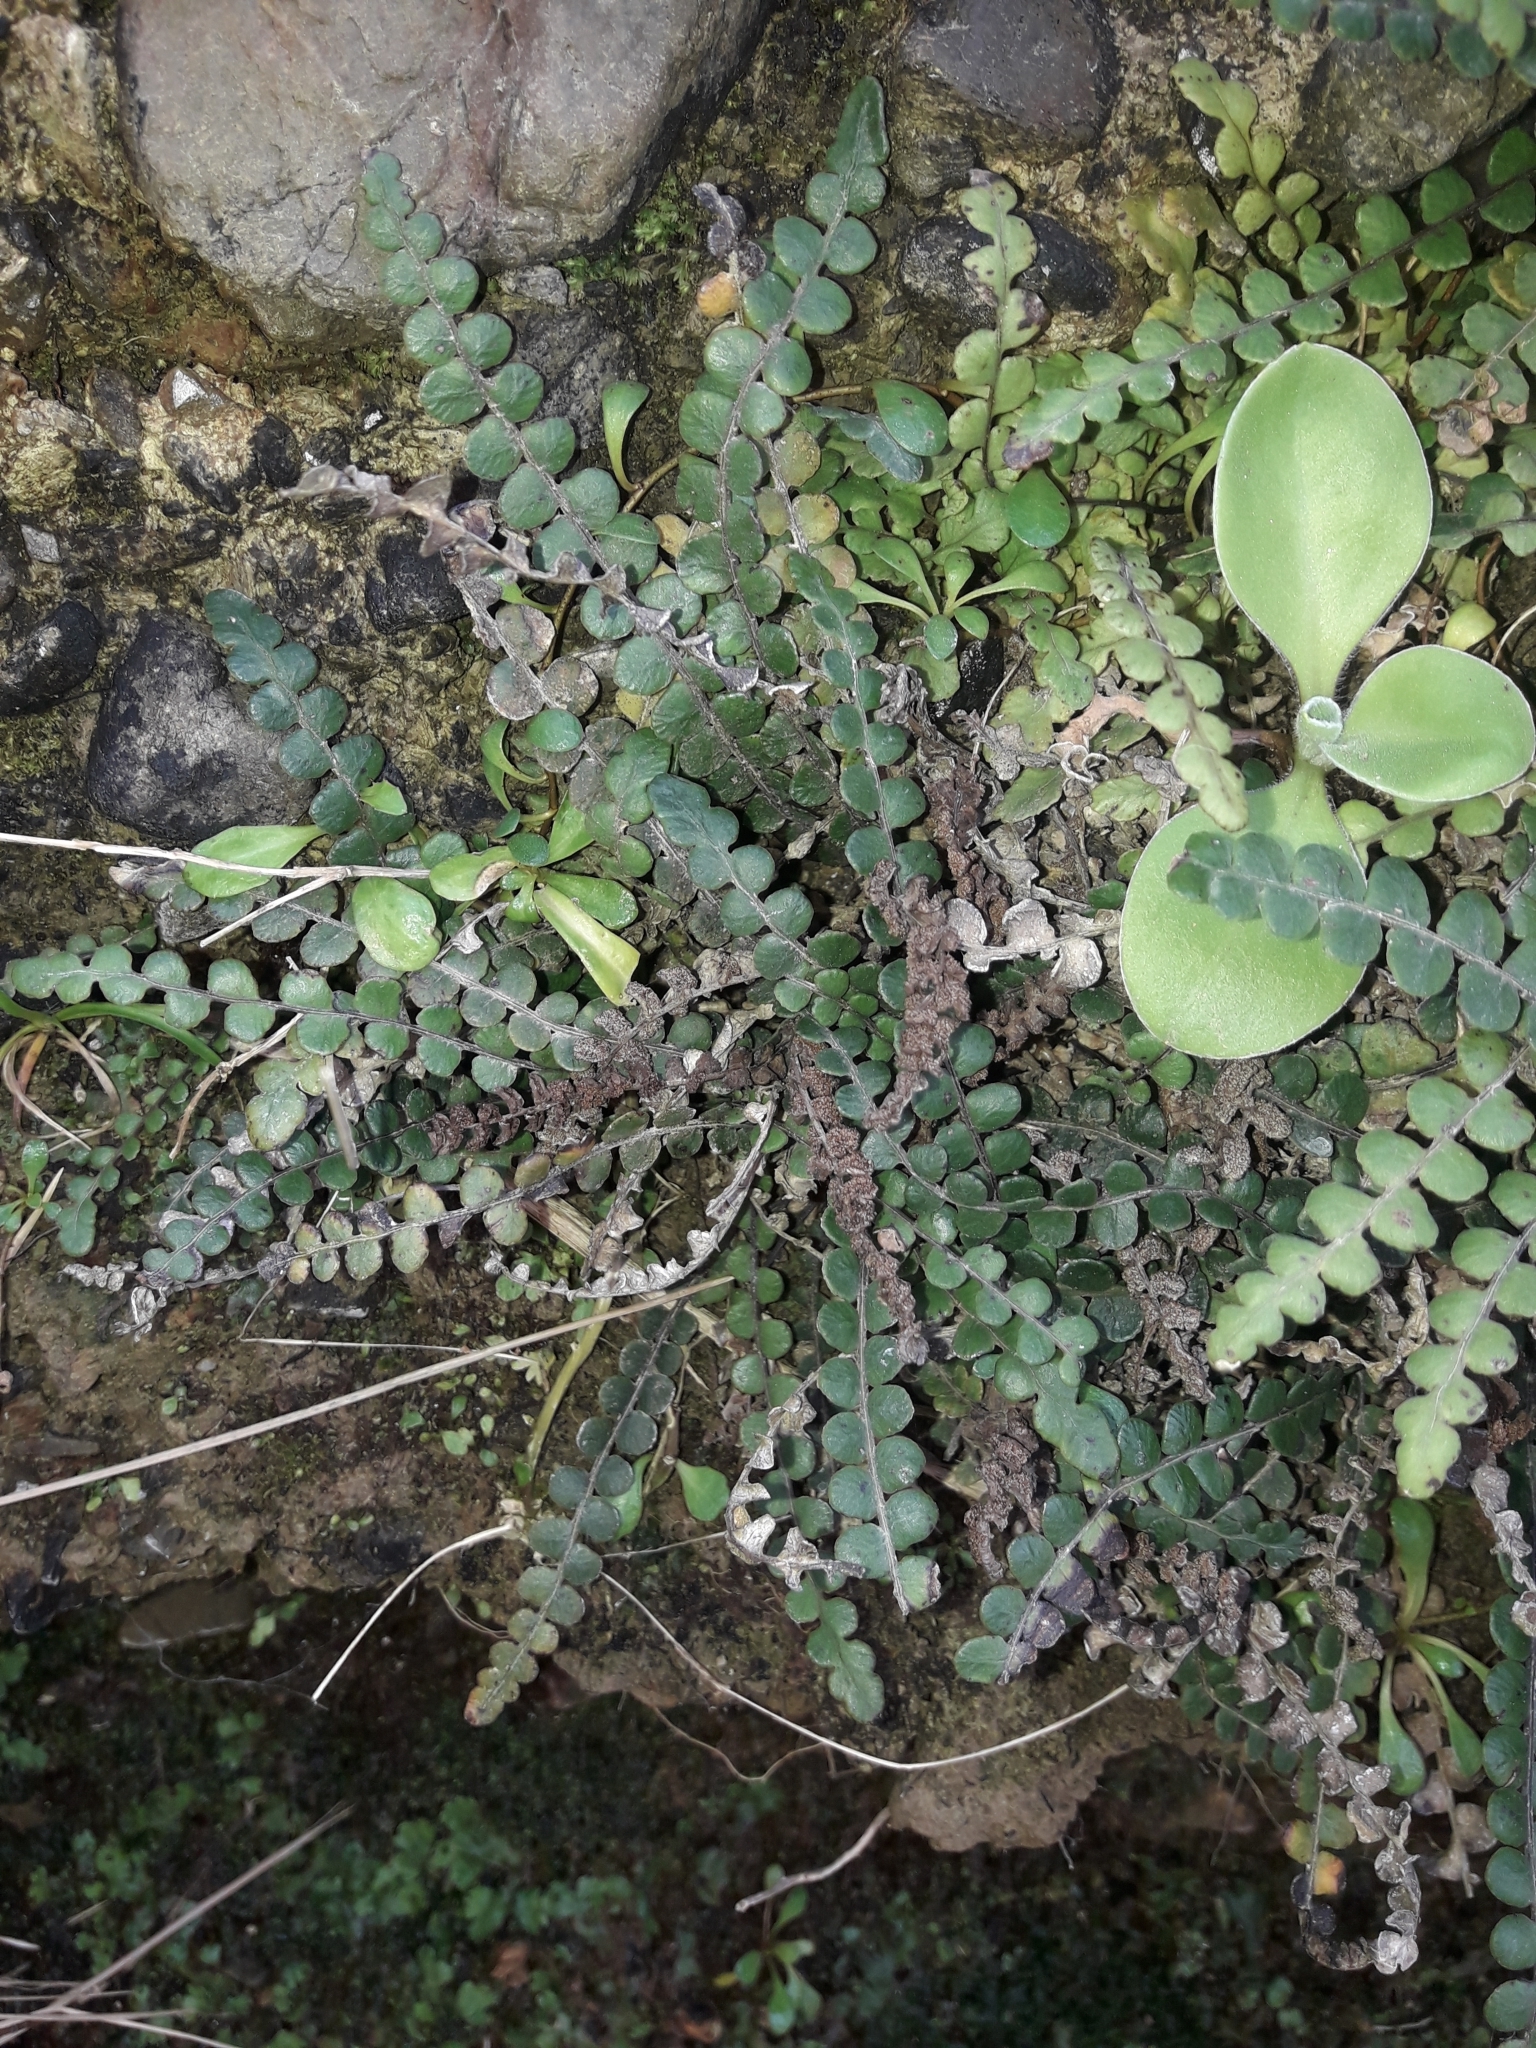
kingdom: Plantae
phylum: Tracheophyta
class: Polypodiopsida
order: Polypodiales
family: Blechnaceae
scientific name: Blechnaceae
